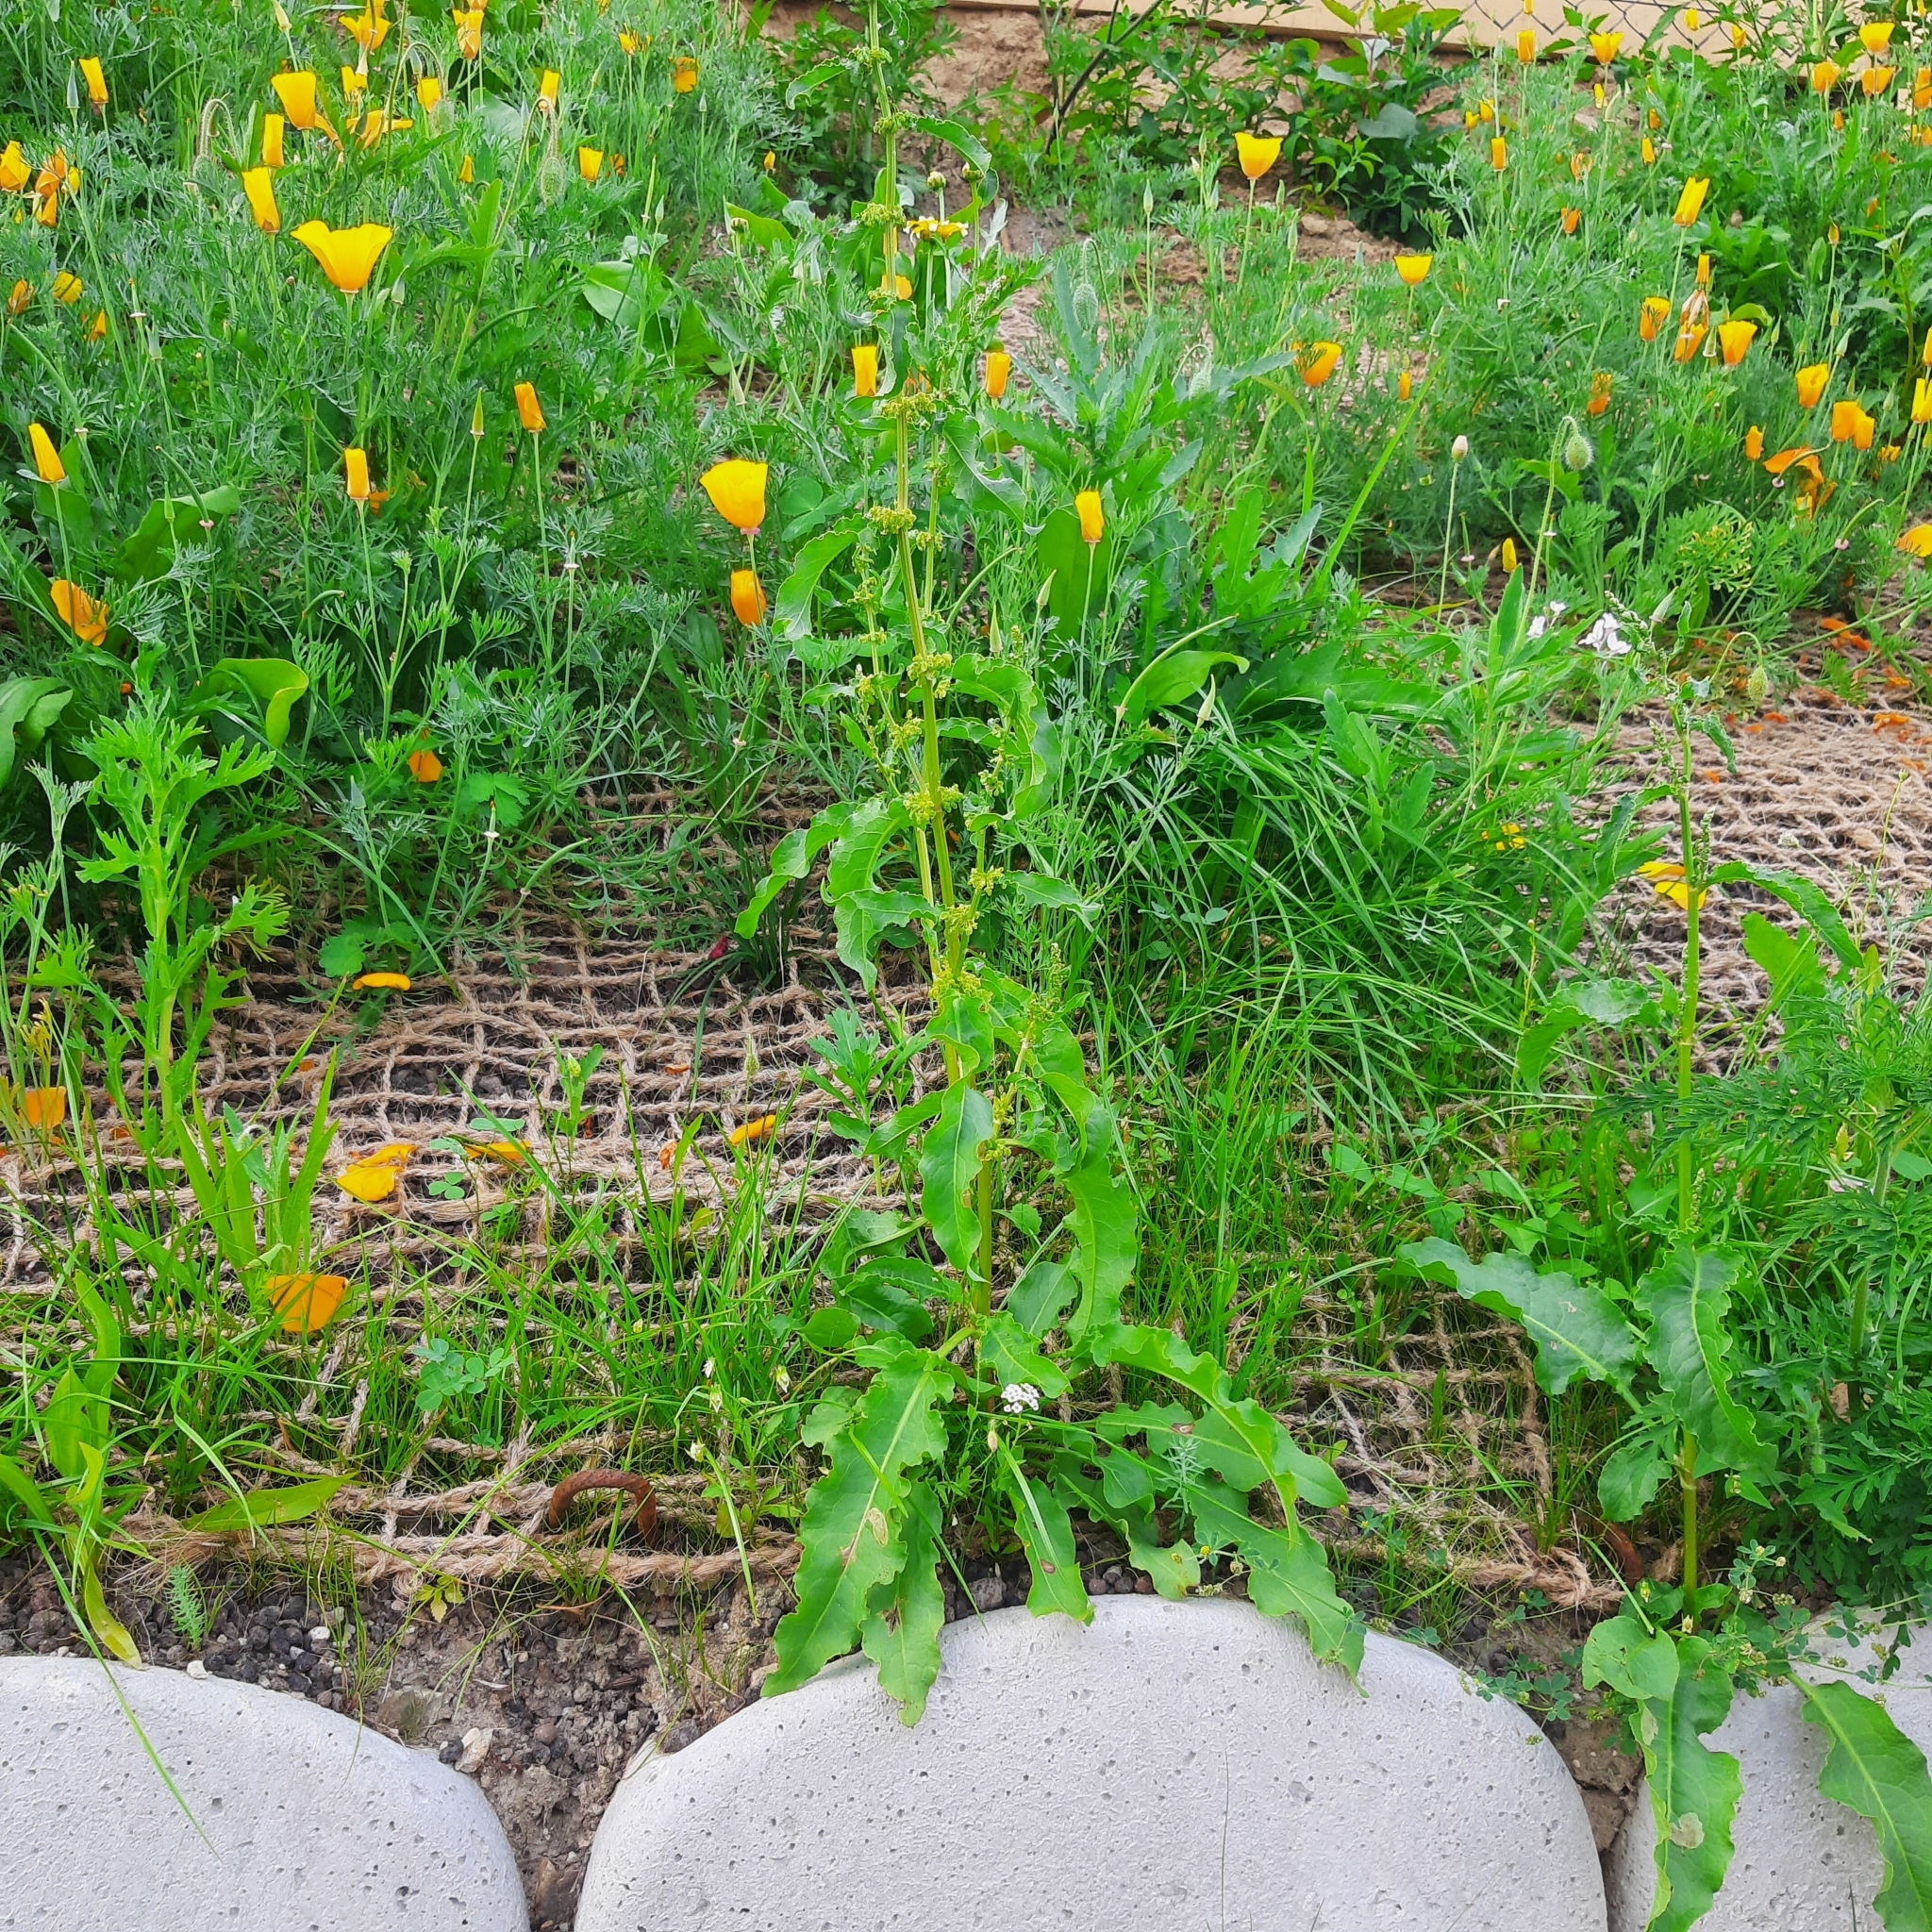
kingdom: Plantae
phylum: Tracheophyta
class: Magnoliopsida
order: Caryophyllales
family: Polygonaceae
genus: Rumex
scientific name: Rumex crispus
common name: Curled dock
